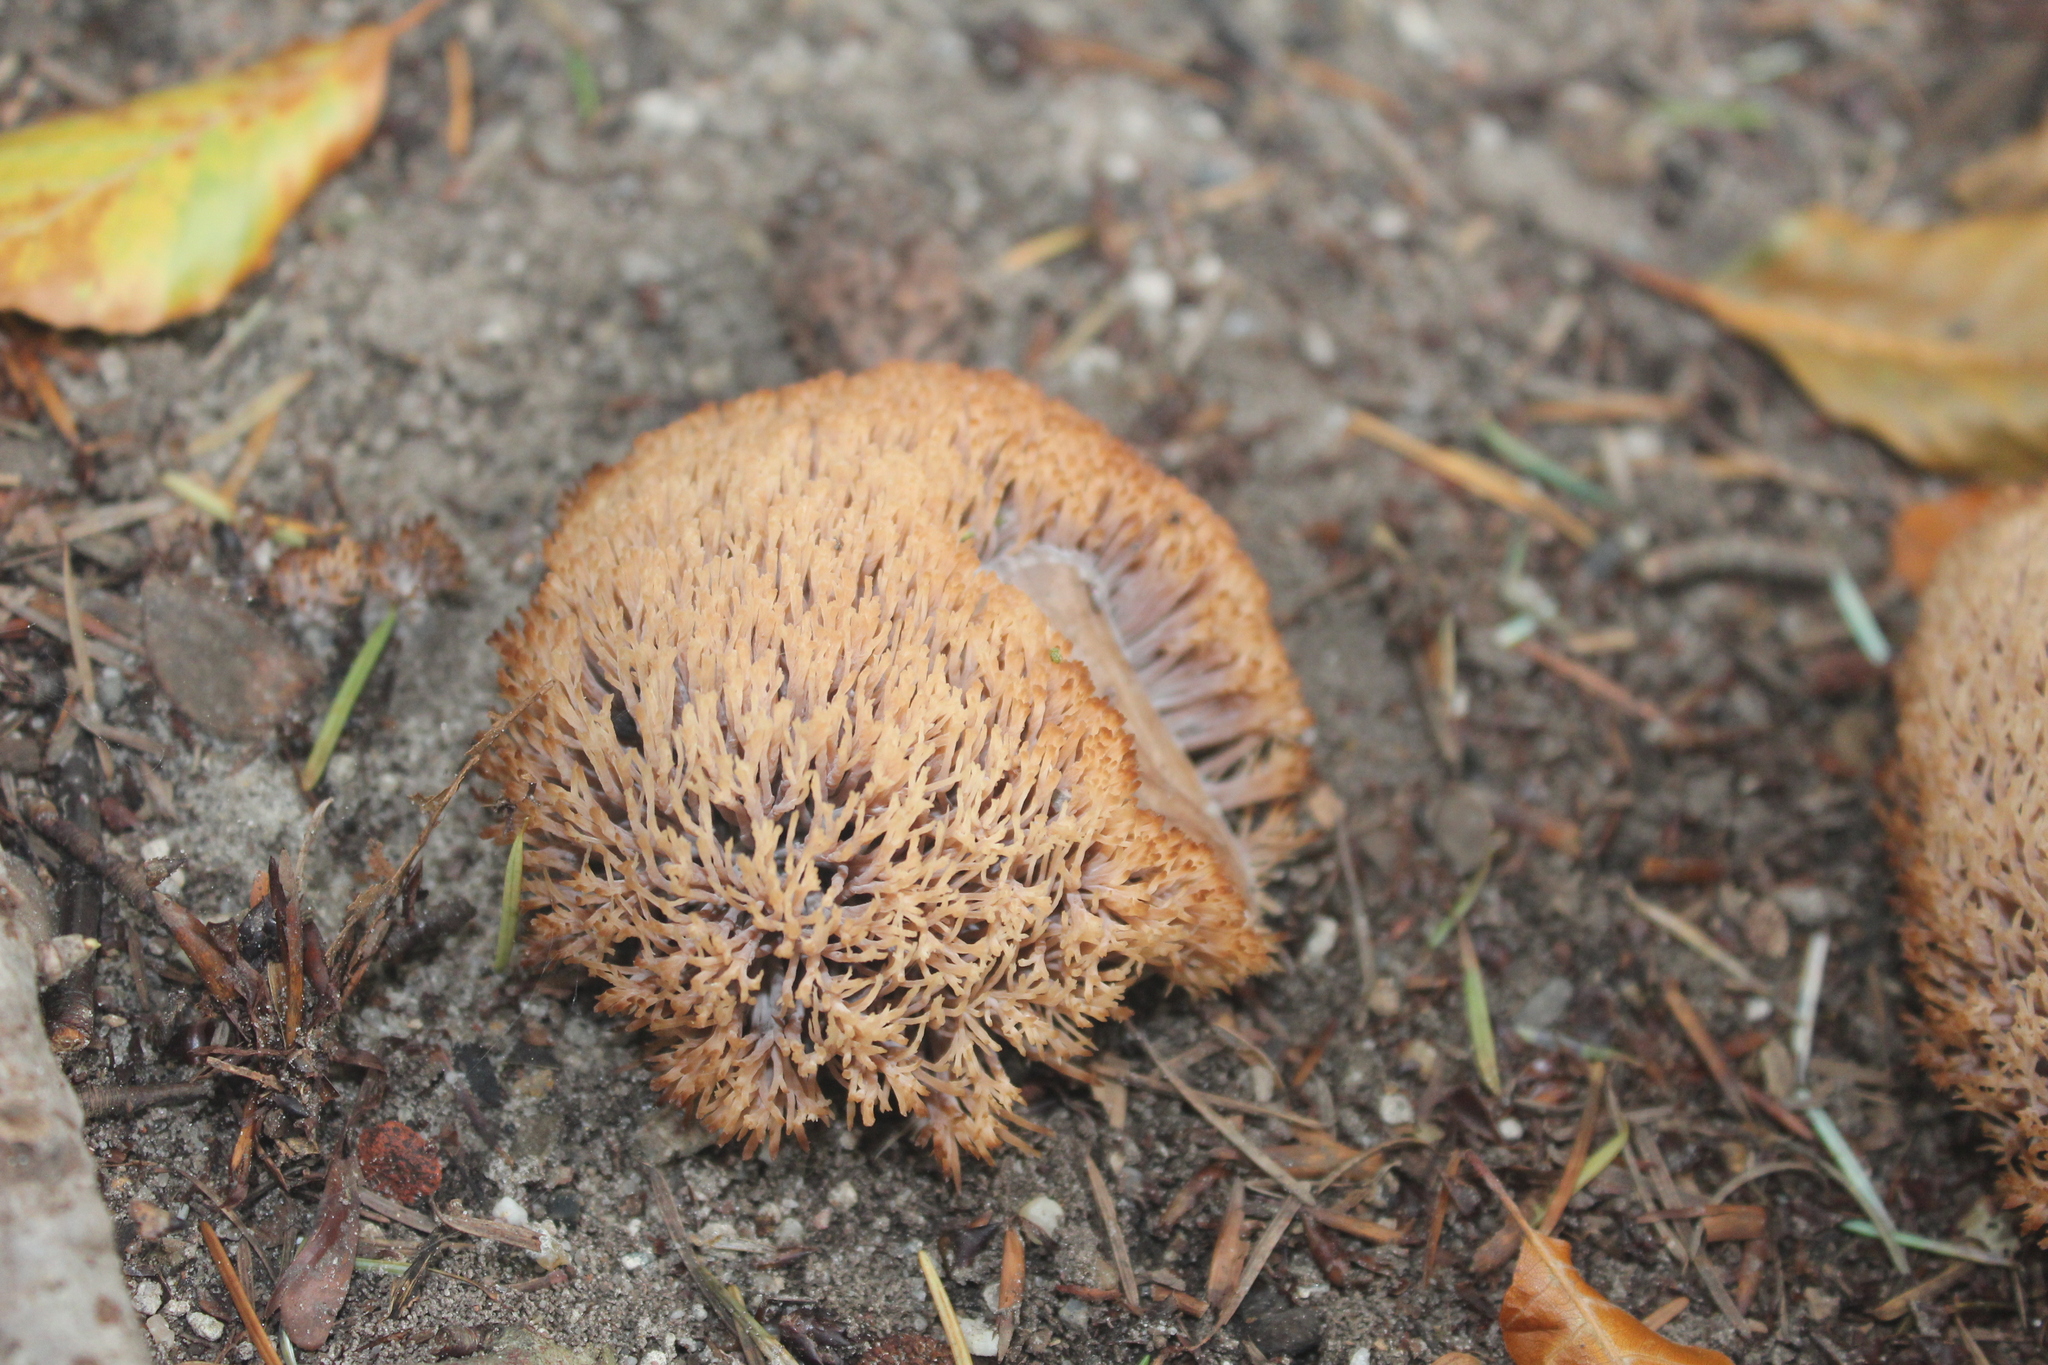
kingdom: Fungi
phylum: Basidiomycota
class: Agaricomycetes
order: Agaricales
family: Pterulaceae
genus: Pterula
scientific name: Pterula multifida
